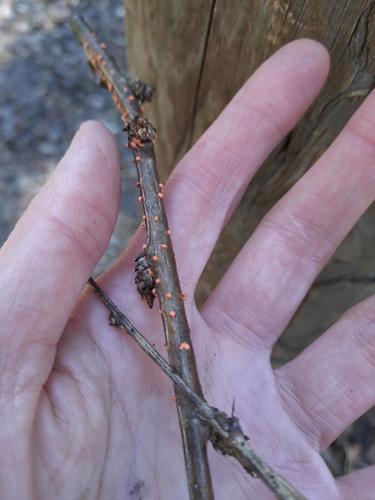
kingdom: Fungi
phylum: Ascomycota
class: Sordariomycetes
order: Hypocreales
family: Nectriaceae
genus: Nectria
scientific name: Nectria cinnabarina
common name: Coral spot
